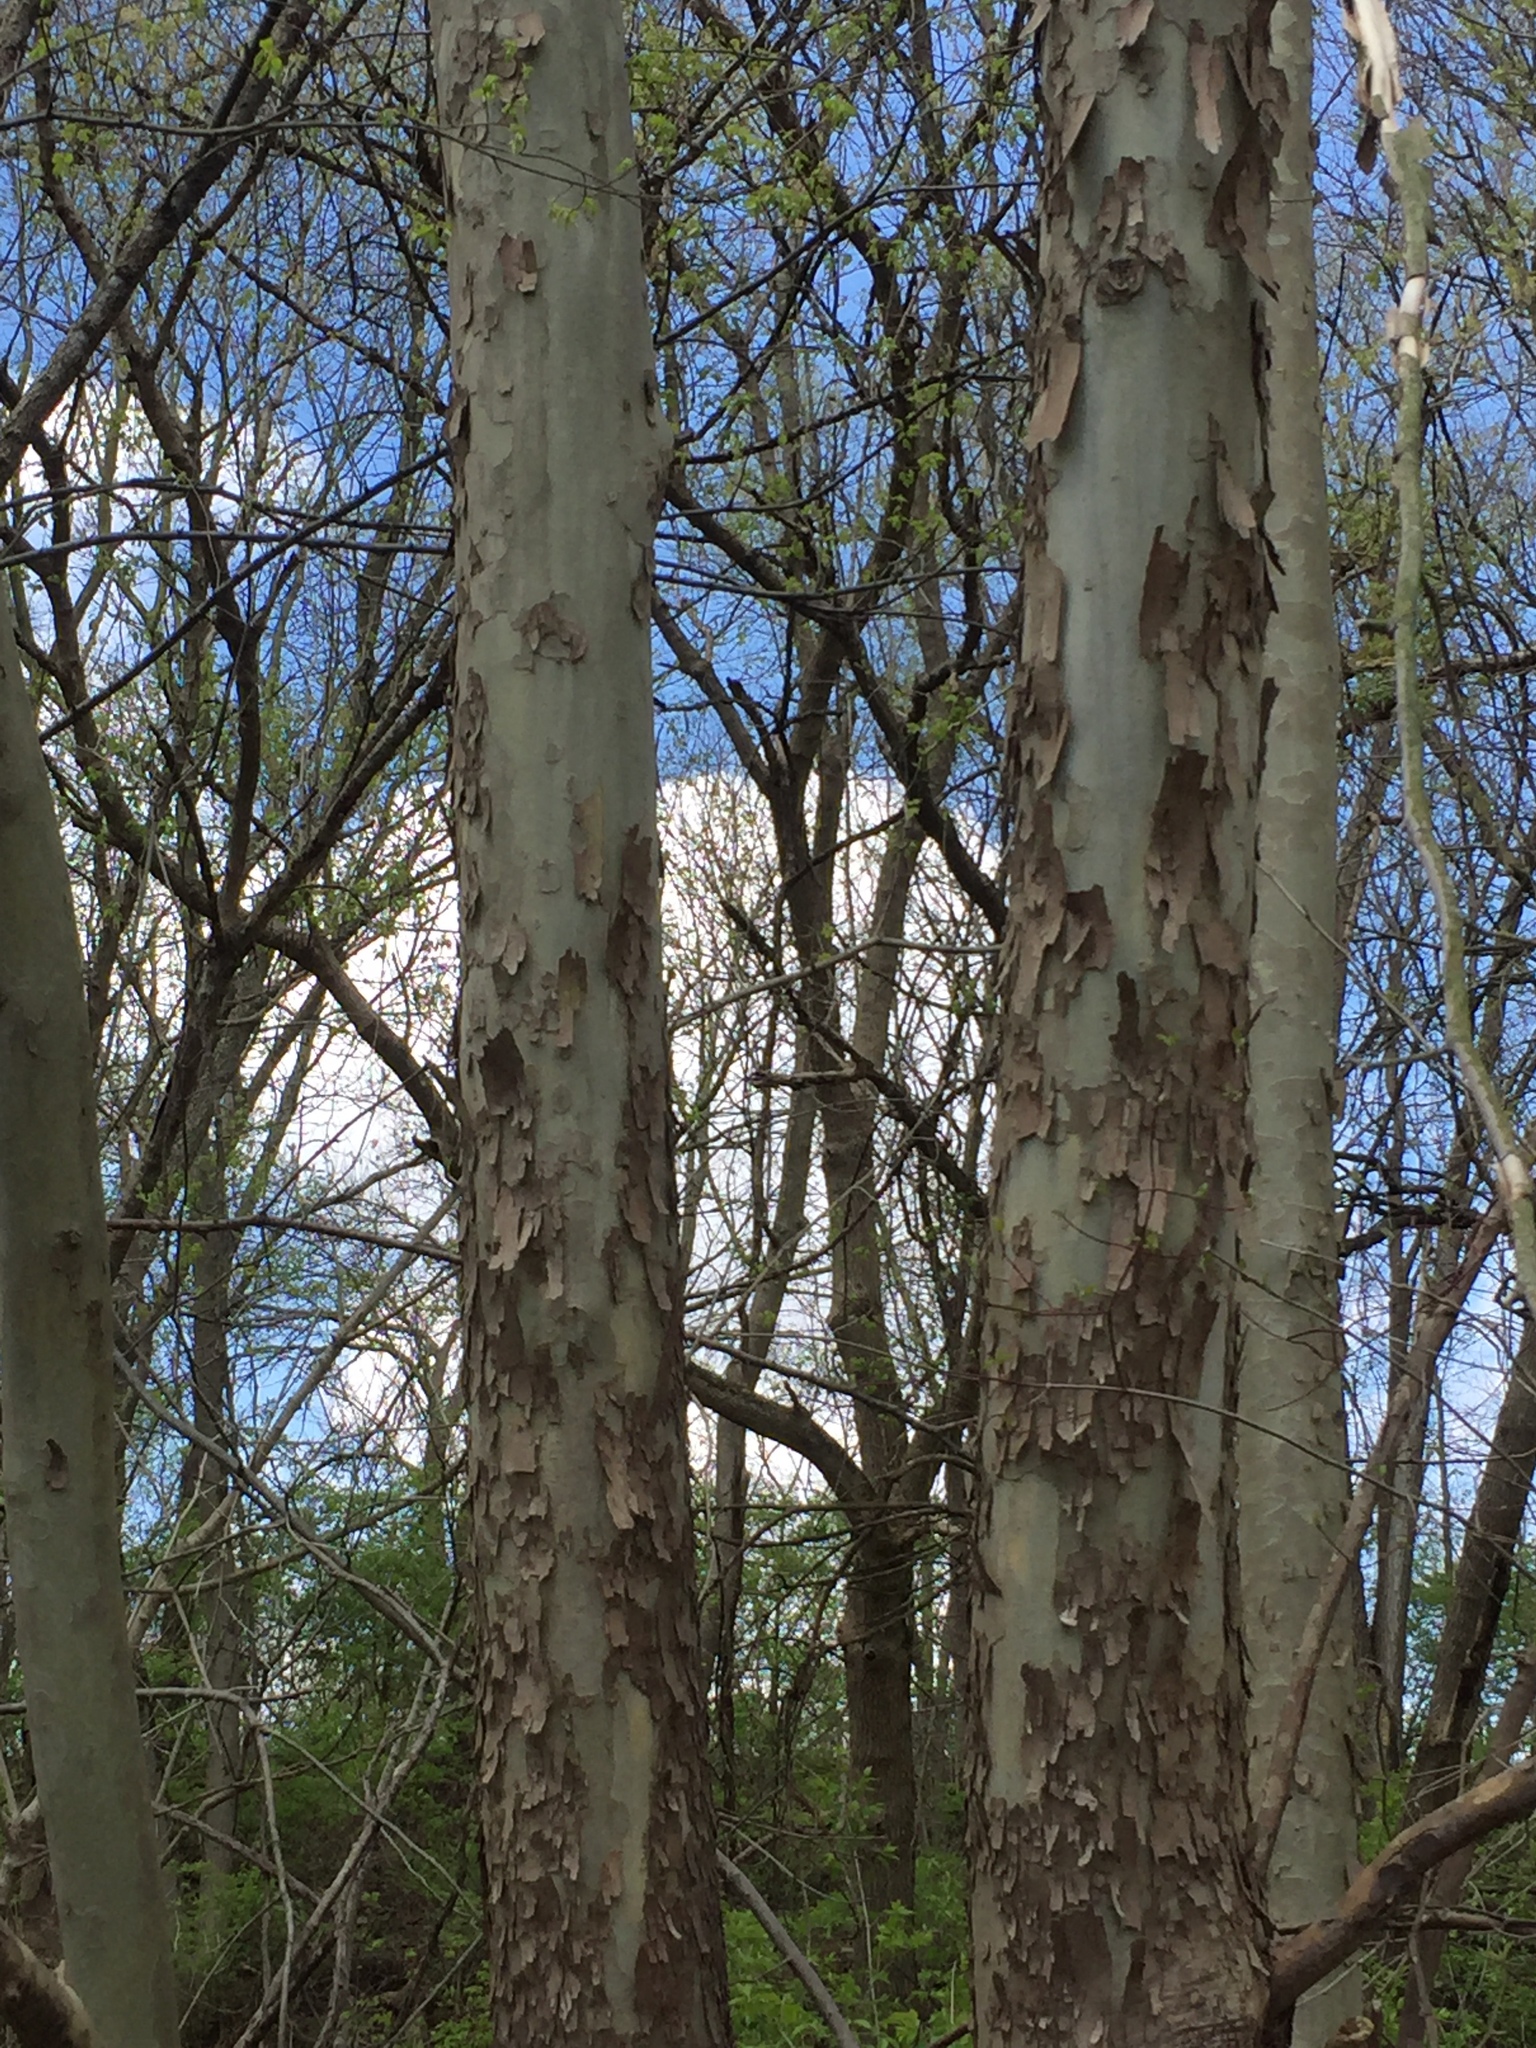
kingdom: Plantae
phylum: Tracheophyta
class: Magnoliopsida
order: Proteales
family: Platanaceae
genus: Platanus
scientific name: Platanus occidentalis
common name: American sycamore
